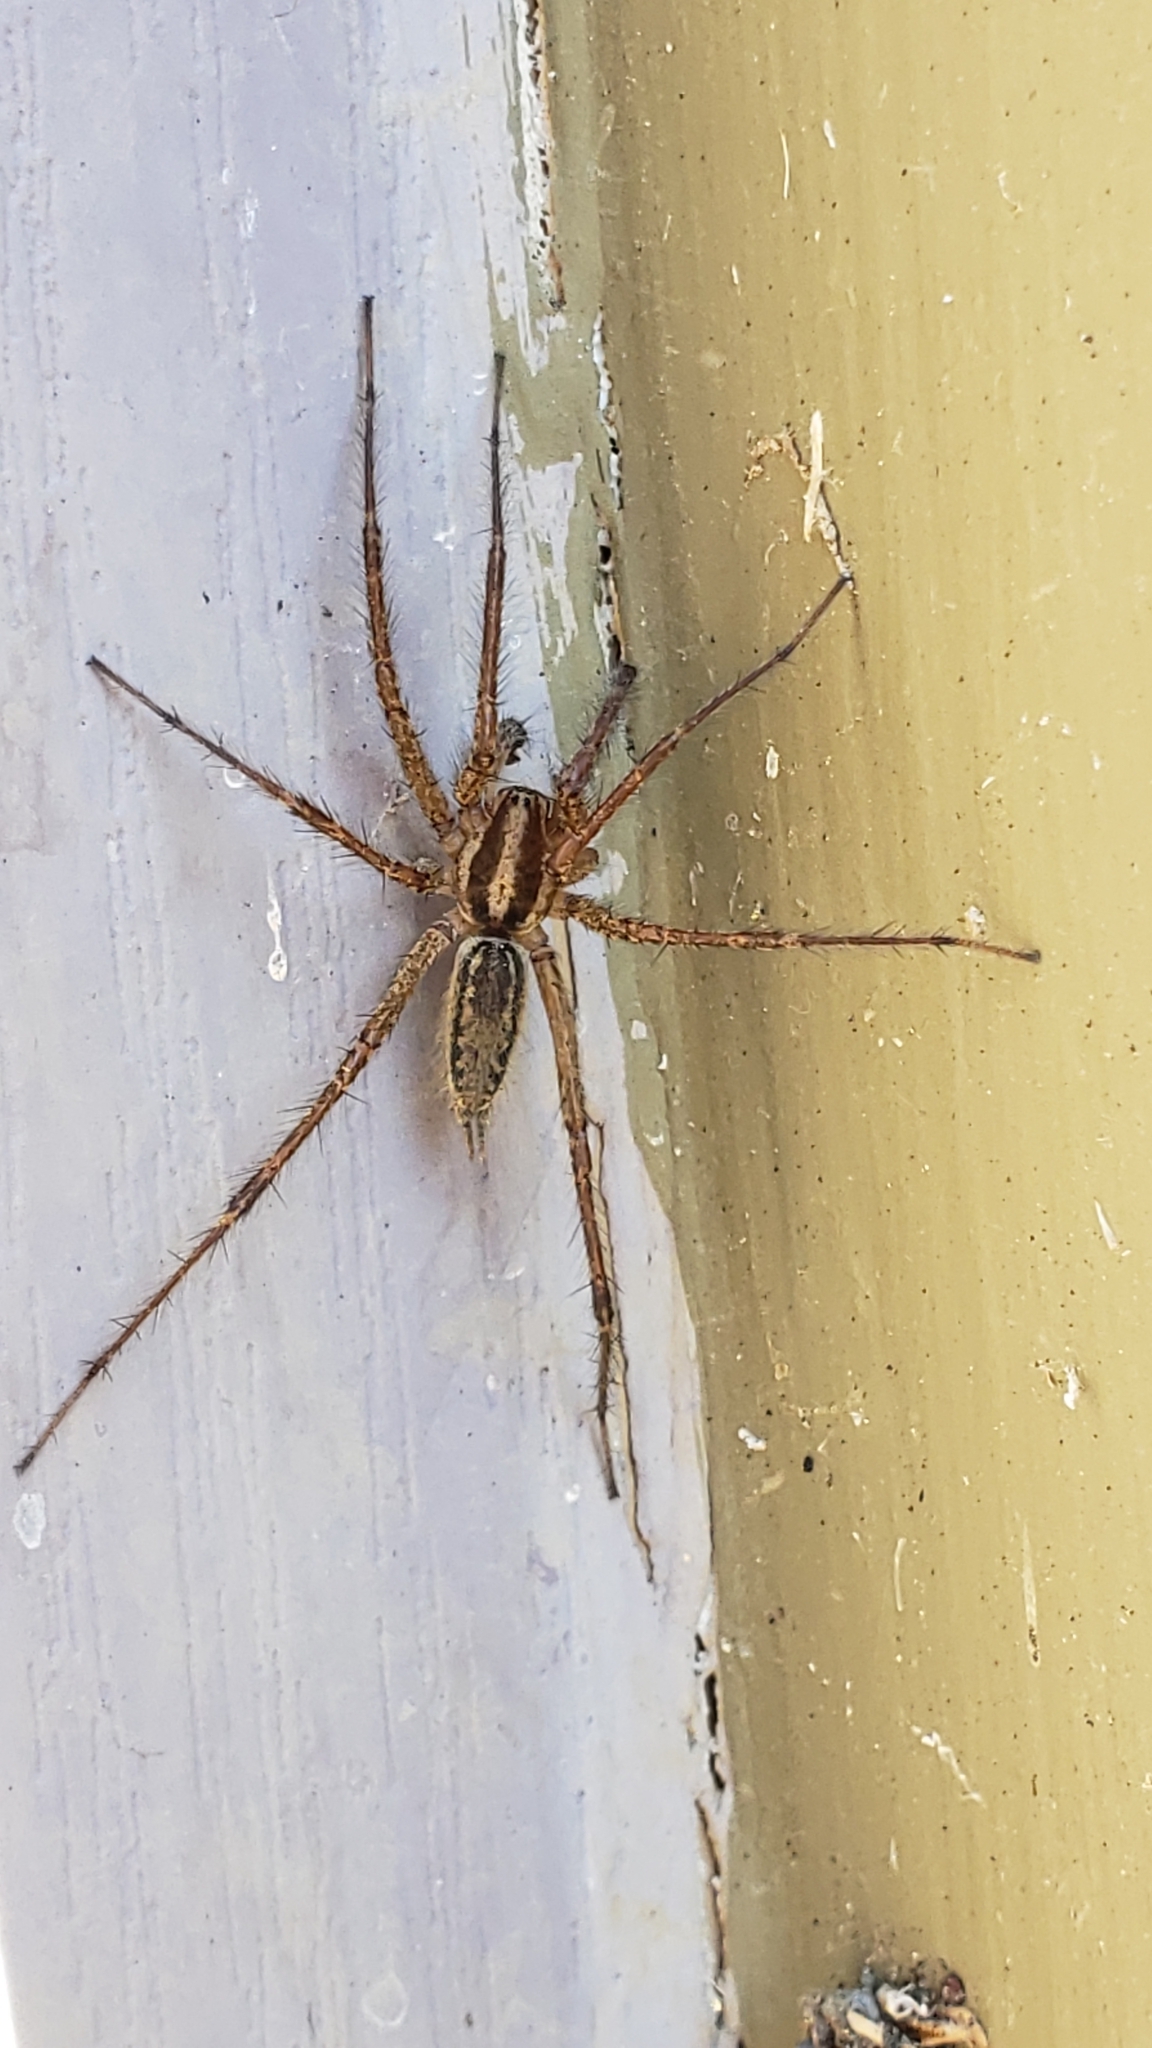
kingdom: Animalia
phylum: Arthropoda
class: Arachnida
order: Araneae
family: Agelenidae
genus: Agelenopsis
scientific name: Agelenopsis
